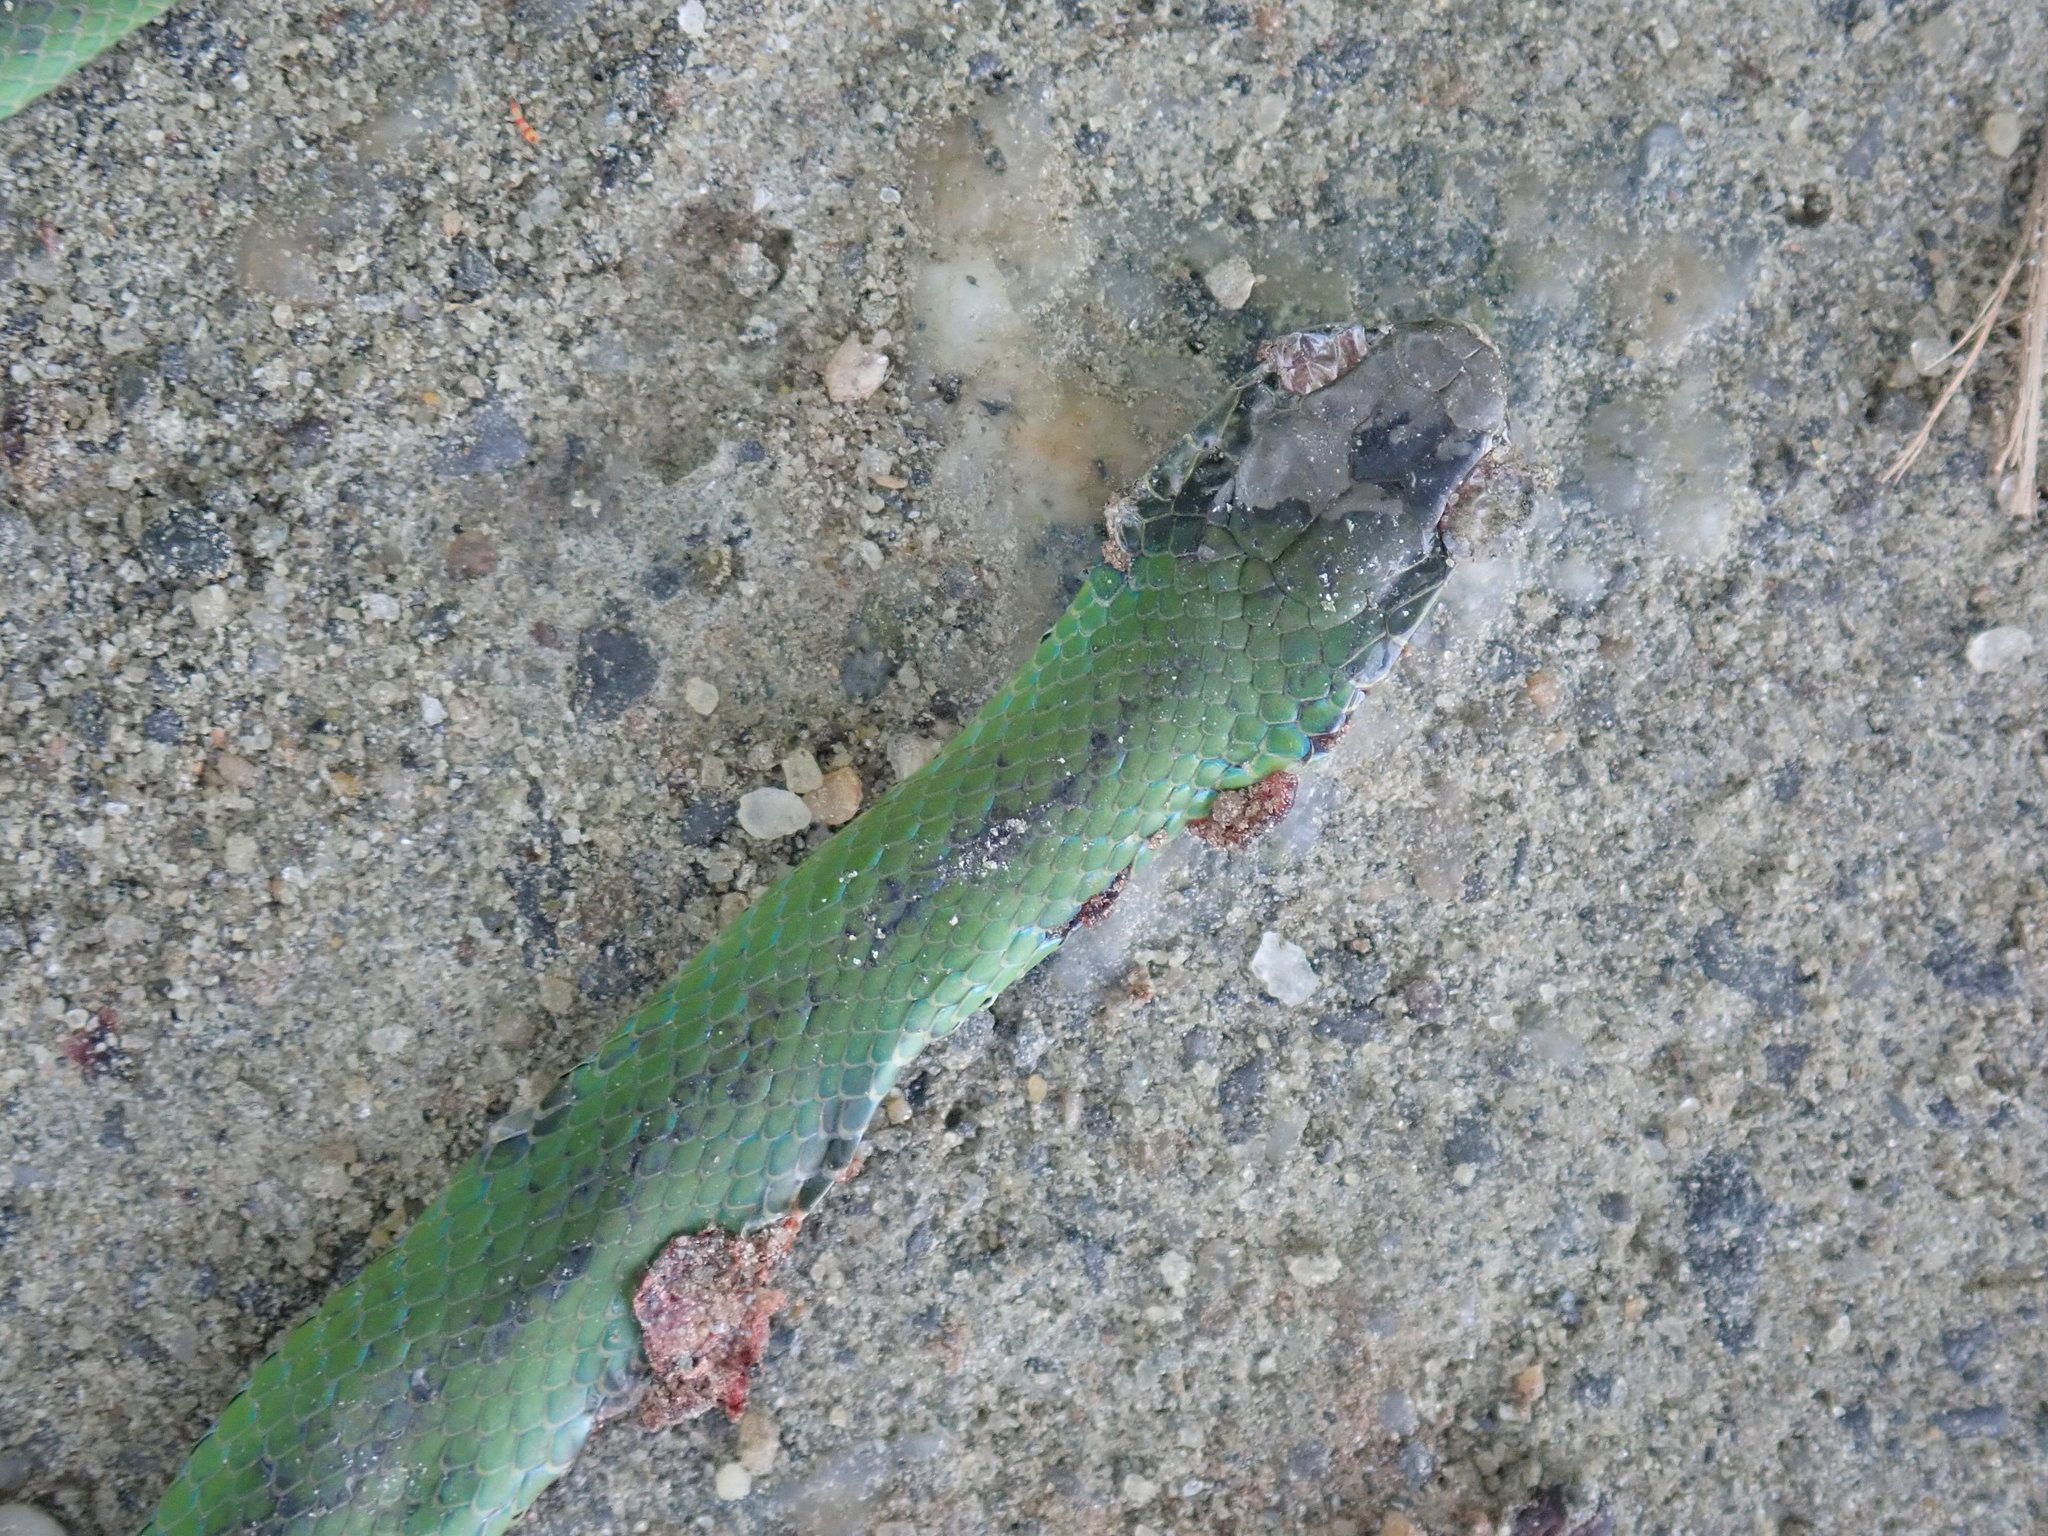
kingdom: Animalia
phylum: Chordata
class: Squamata
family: Colubridae
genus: Opheodrys
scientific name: Opheodrys vernalis
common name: Smooth green snake
